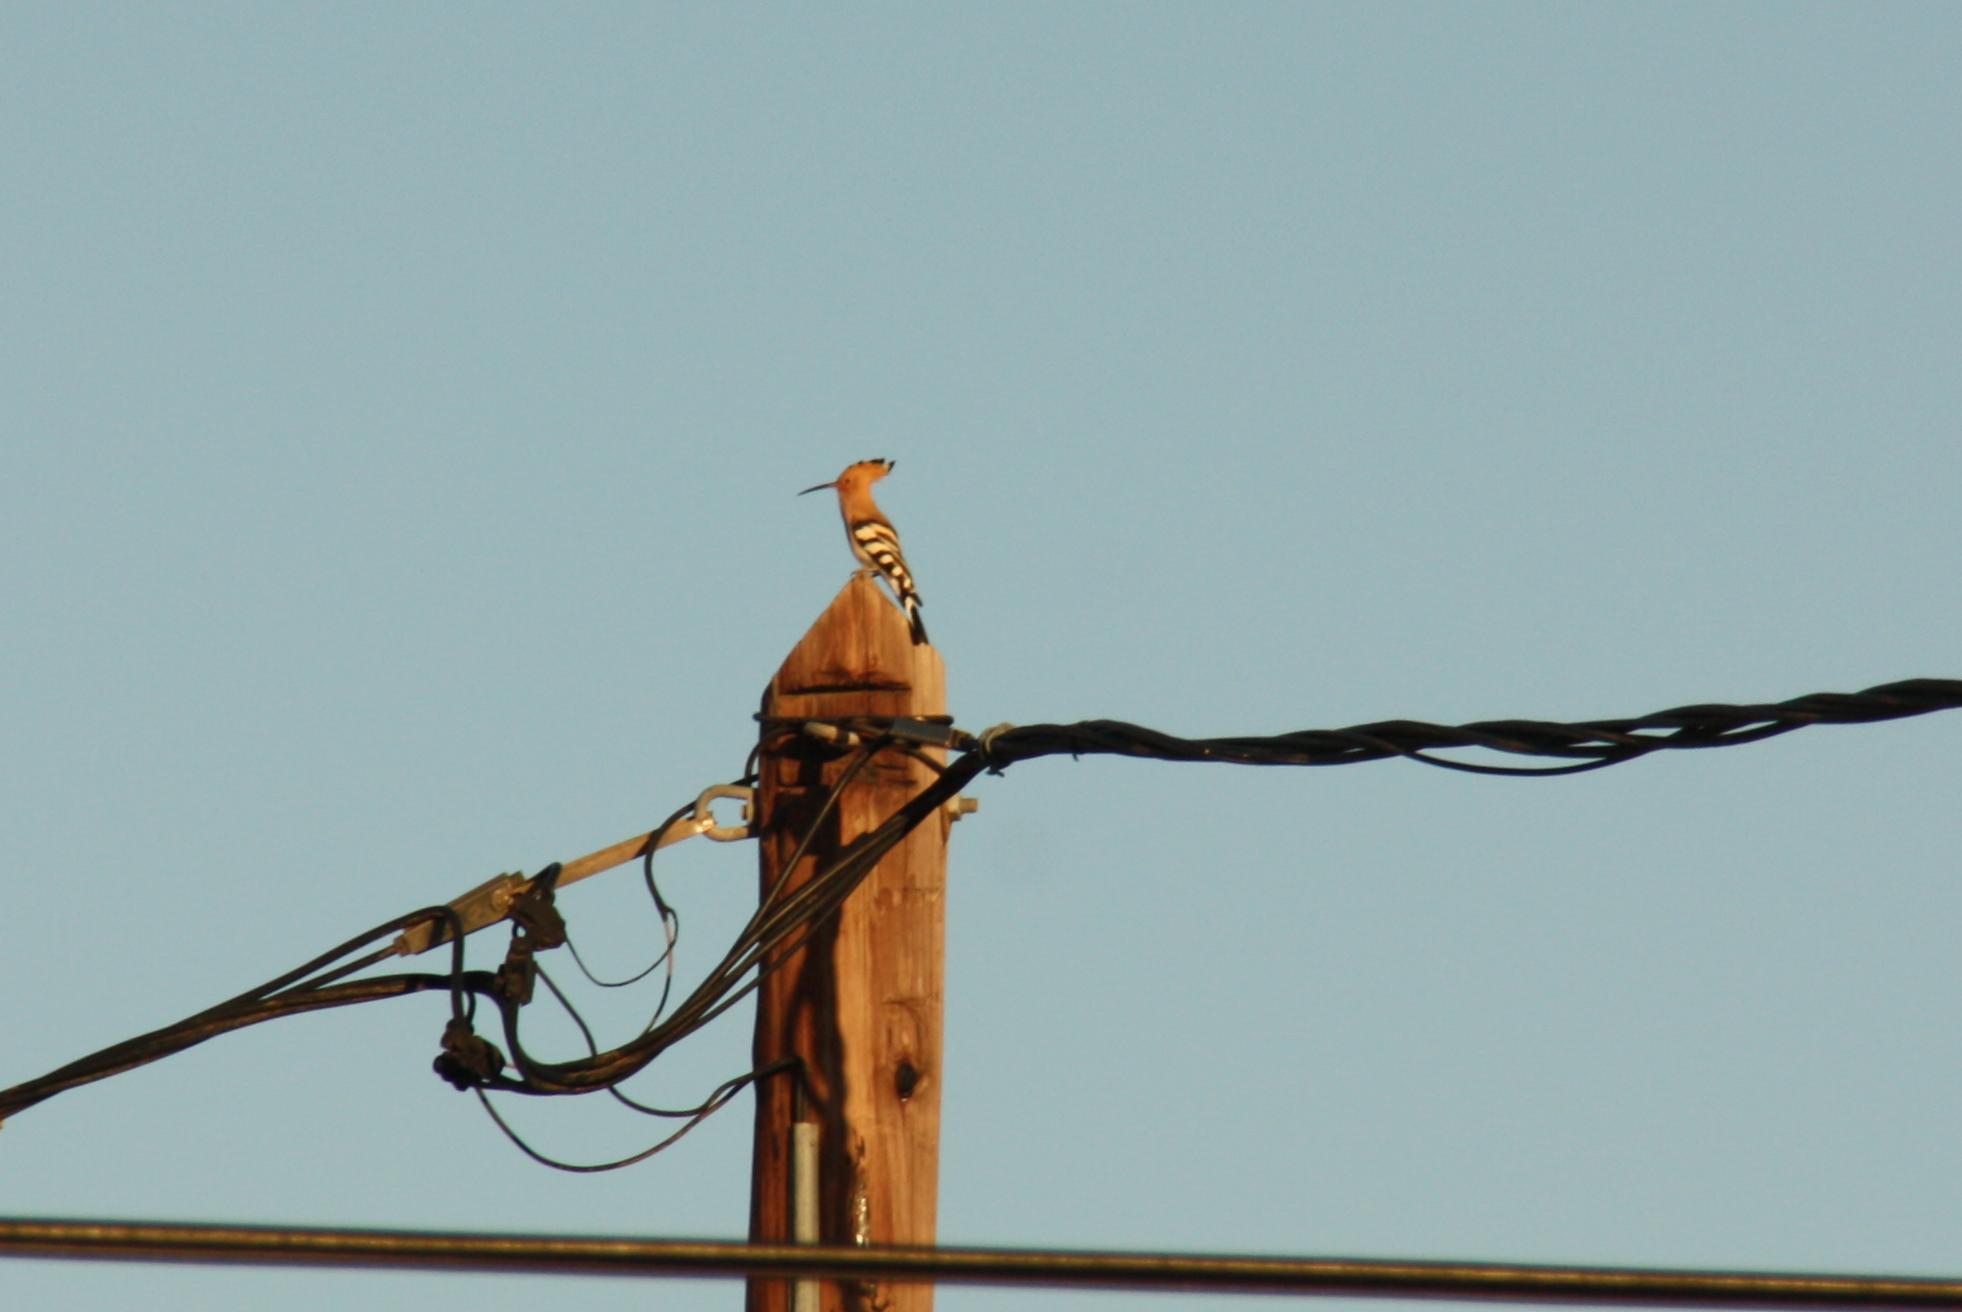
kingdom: Animalia
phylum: Chordata
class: Aves
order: Bucerotiformes
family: Upupidae
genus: Upupa
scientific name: Upupa epops
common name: Eurasian hoopoe
